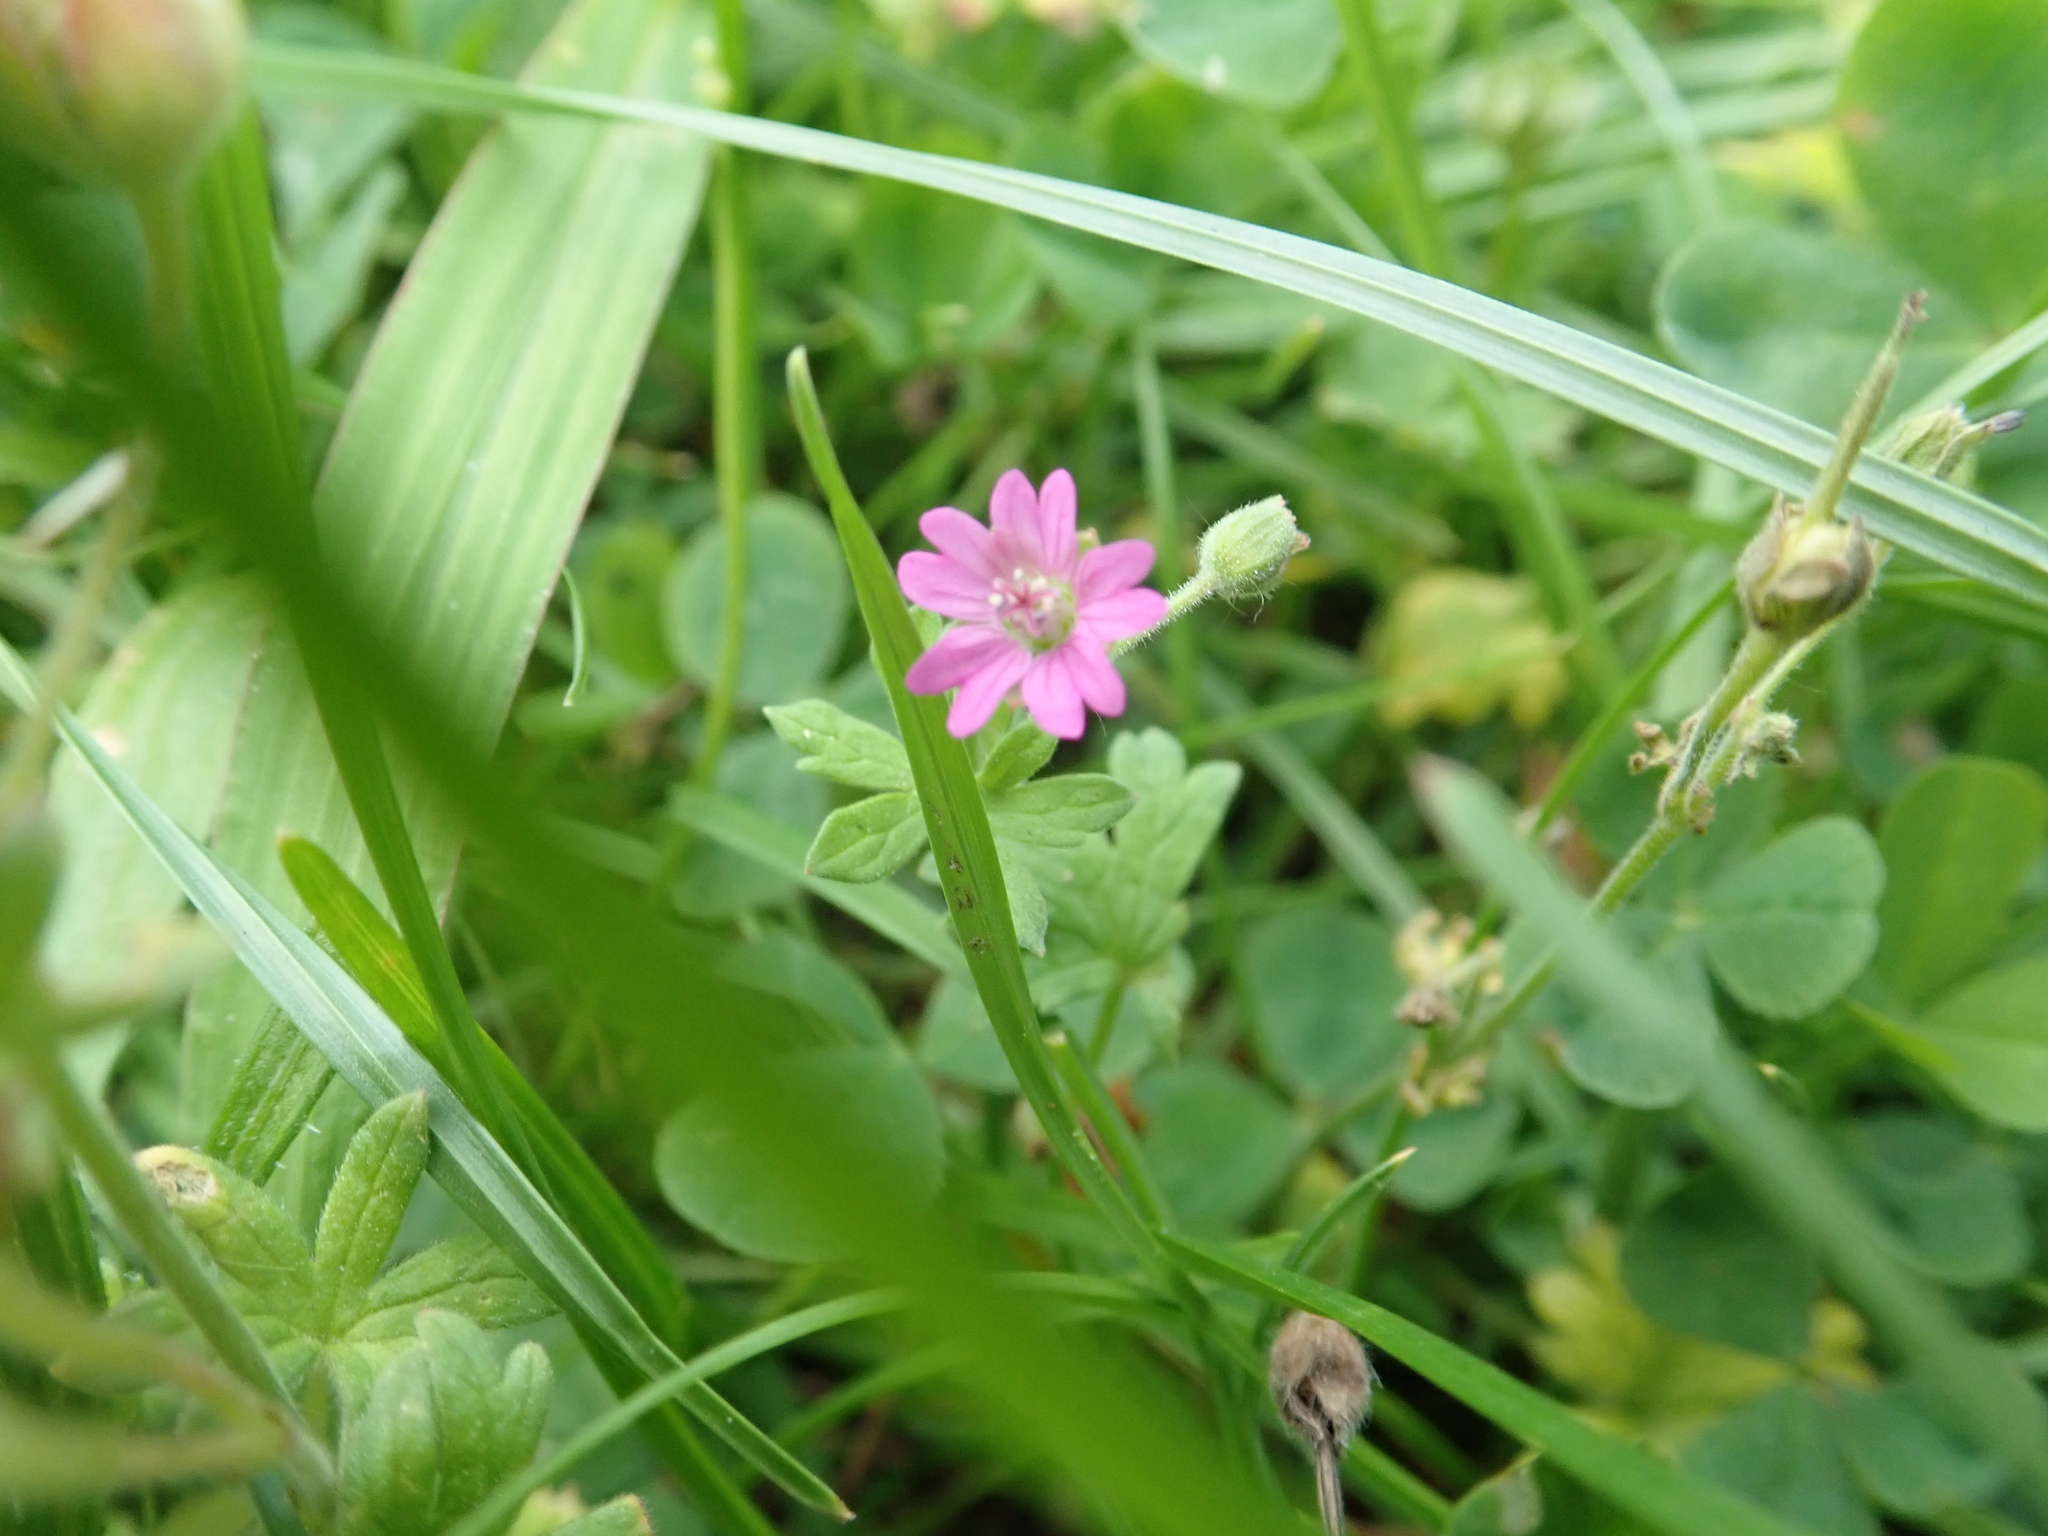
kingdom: Plantae
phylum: Tracheophyta
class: Magnoliopsida
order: Geraniales
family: Geraniaceae
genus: Geranium
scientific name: Geranium molle
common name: Dove's-foot crane's-bill
